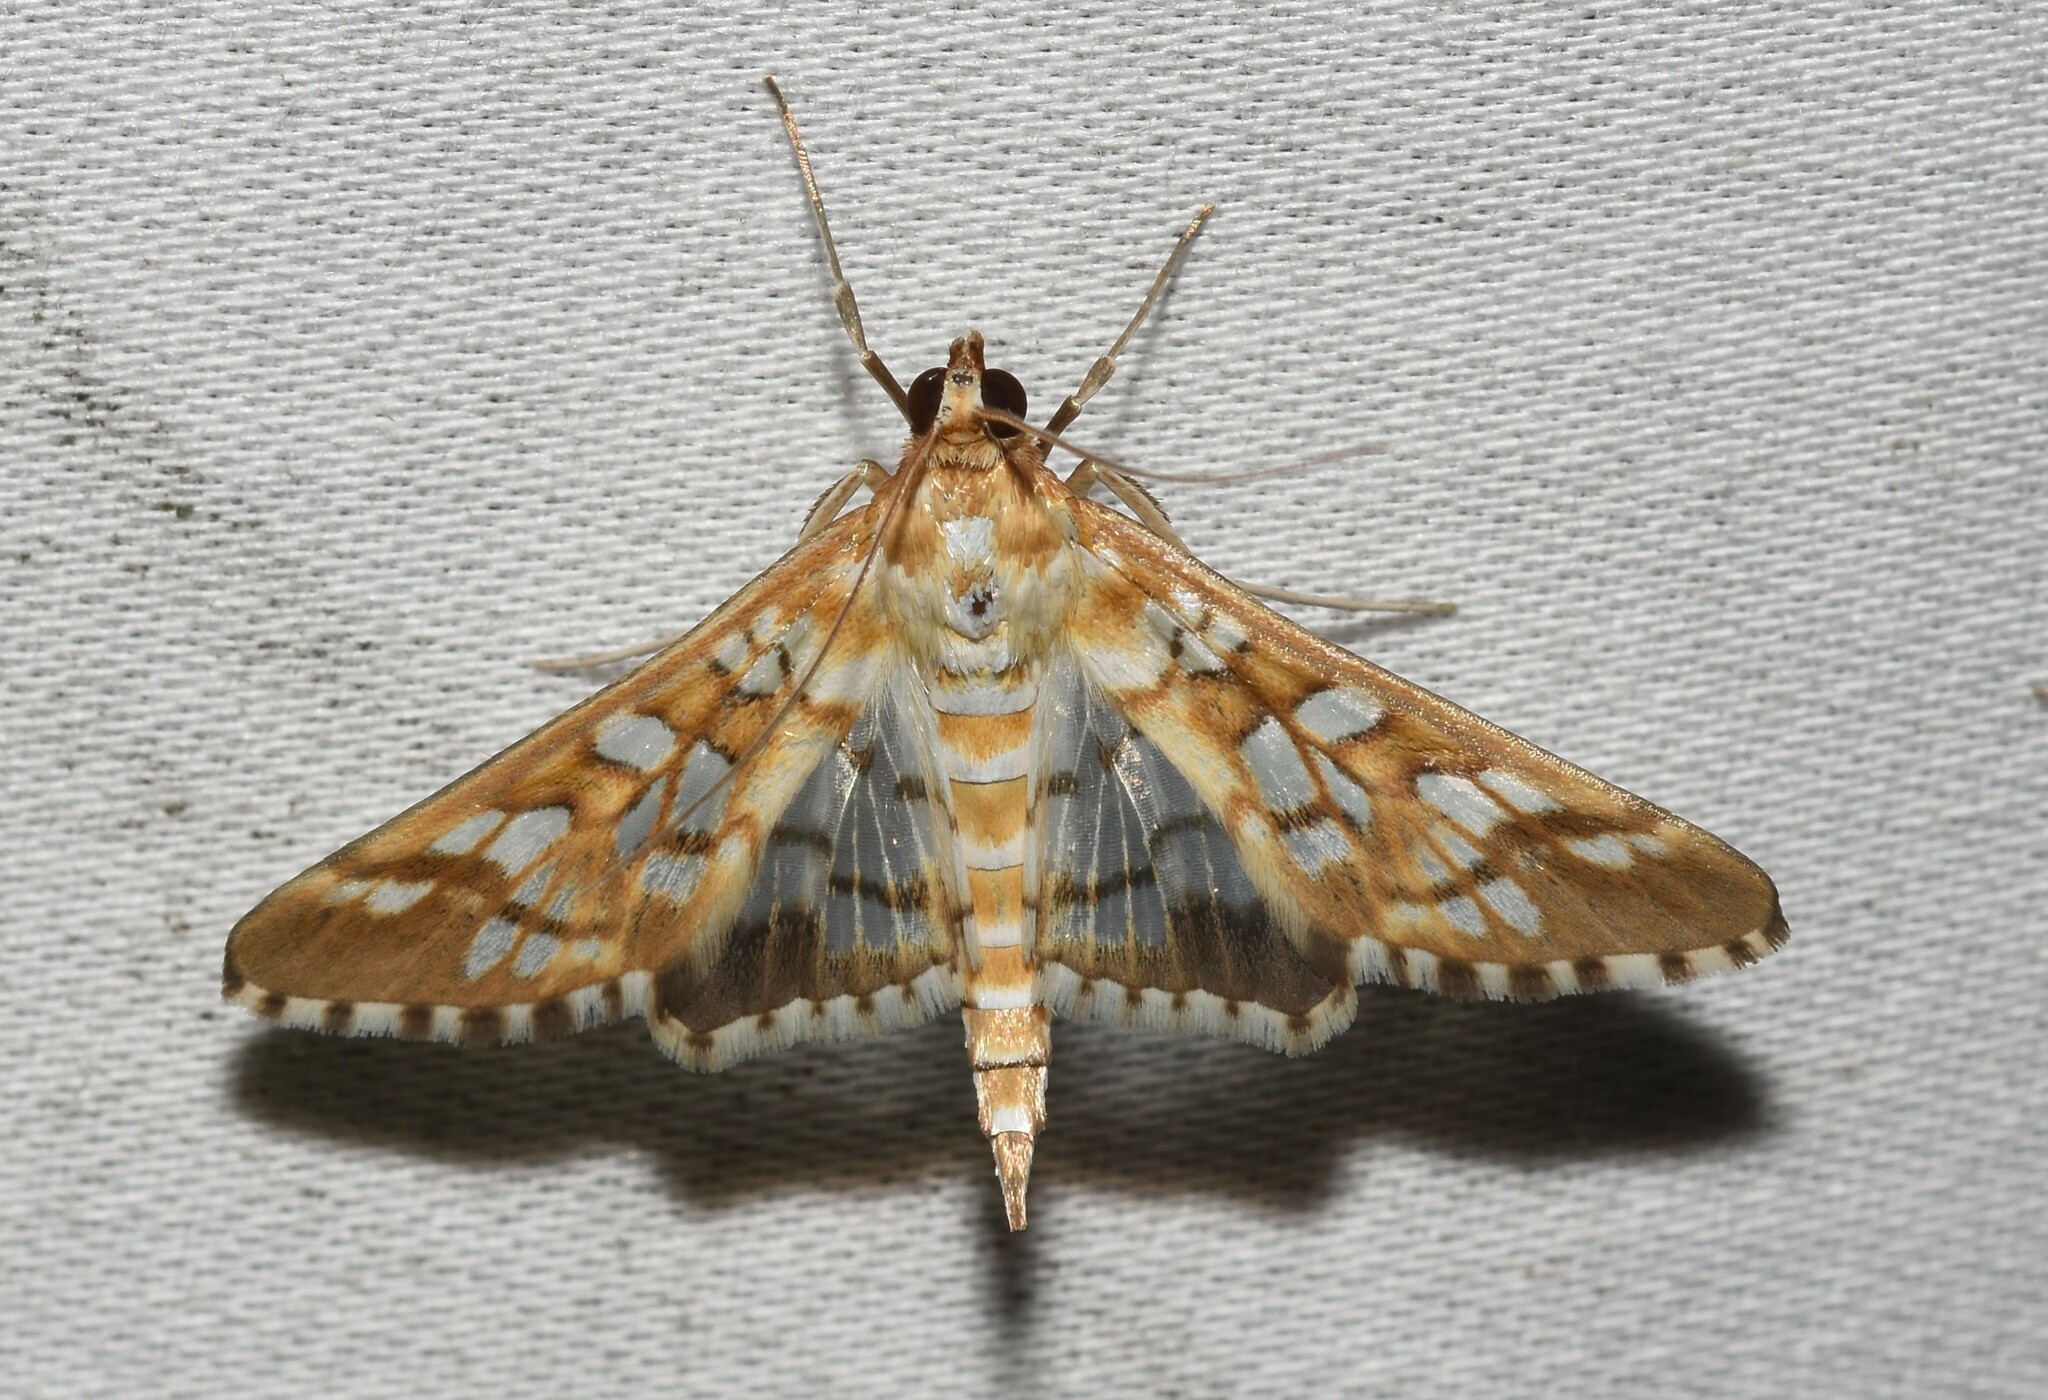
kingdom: Animalia
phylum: Arthropoda
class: Insecta
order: Lepidoptera
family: Crambidae
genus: Epipagis
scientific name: Epipagis fenestralis
